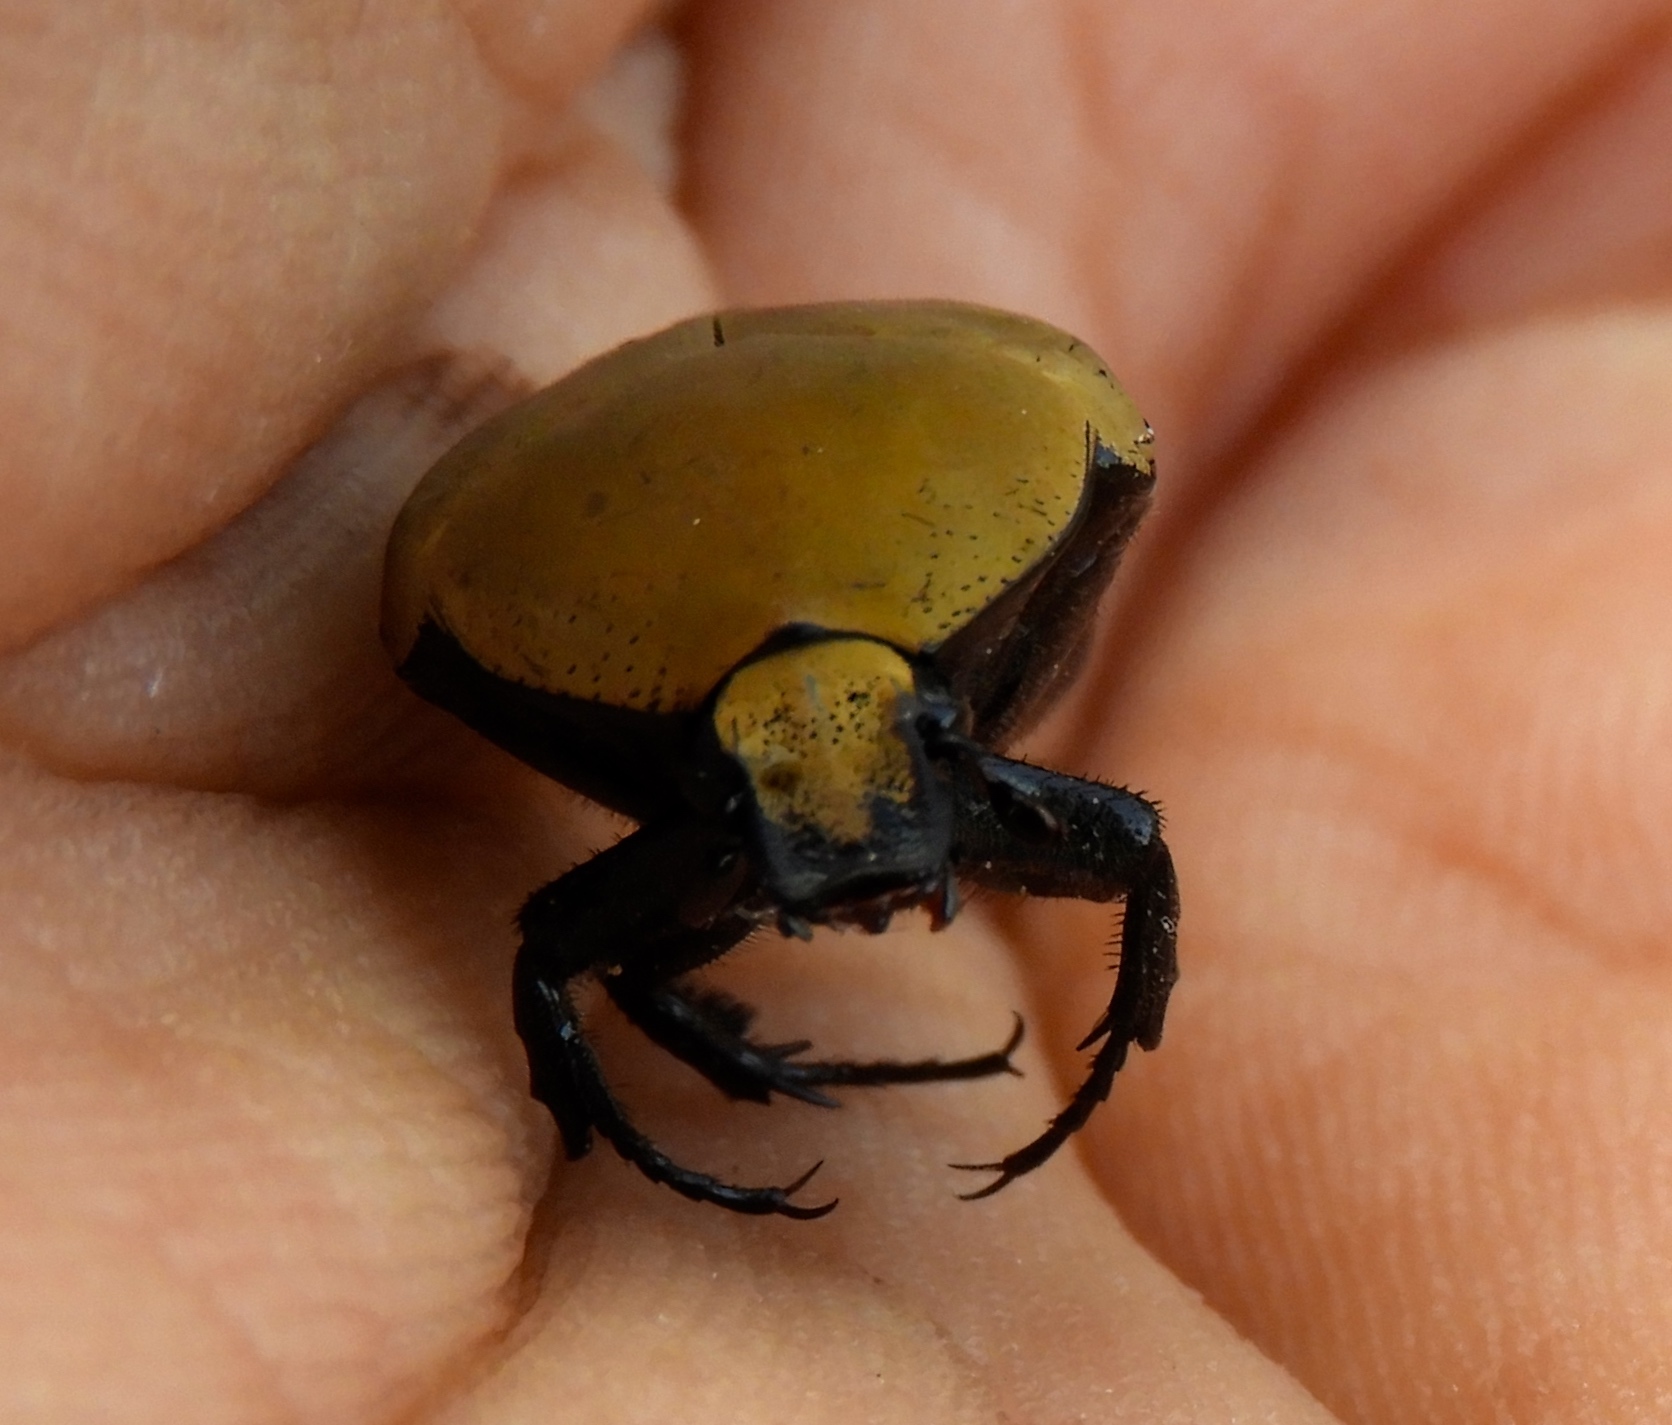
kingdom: Animalia
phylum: Arthropoda
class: Insecta
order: Coleoptera
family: Scarabaeidae
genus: Hologymnetis
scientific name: Hologymnetis cinerea
